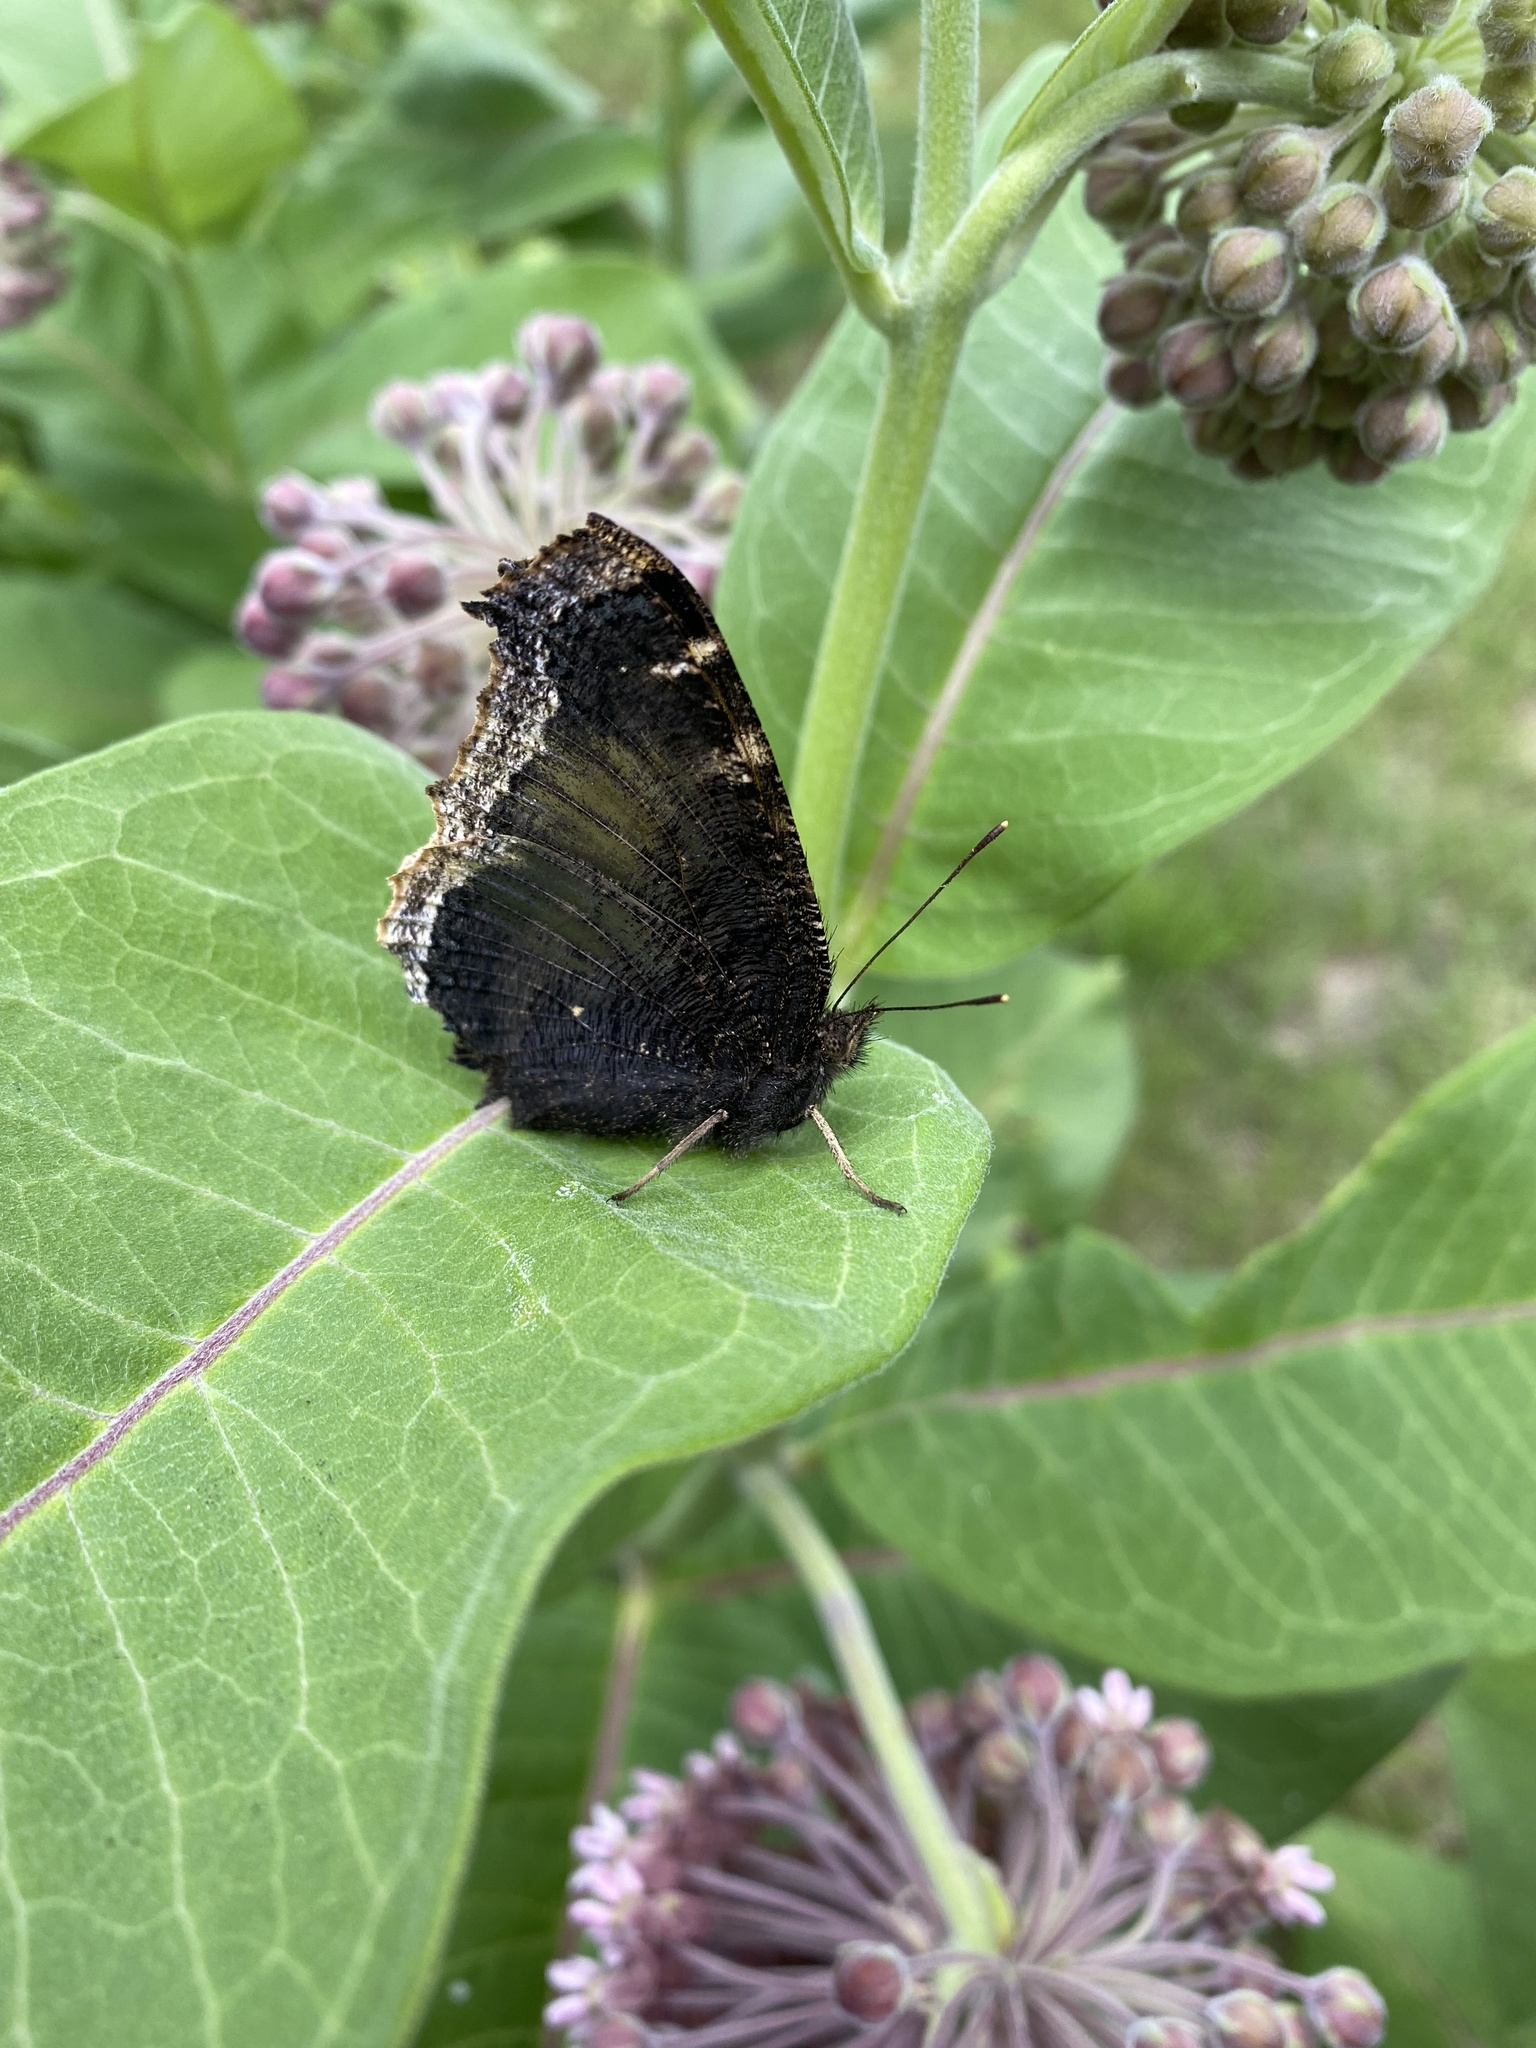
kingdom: Animalia
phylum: Arthropoda
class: Insecta
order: Lepidoptera
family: Nymphalidae
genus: Nymphalis
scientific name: Nymphalis antiopa
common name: Camberwell beauty
